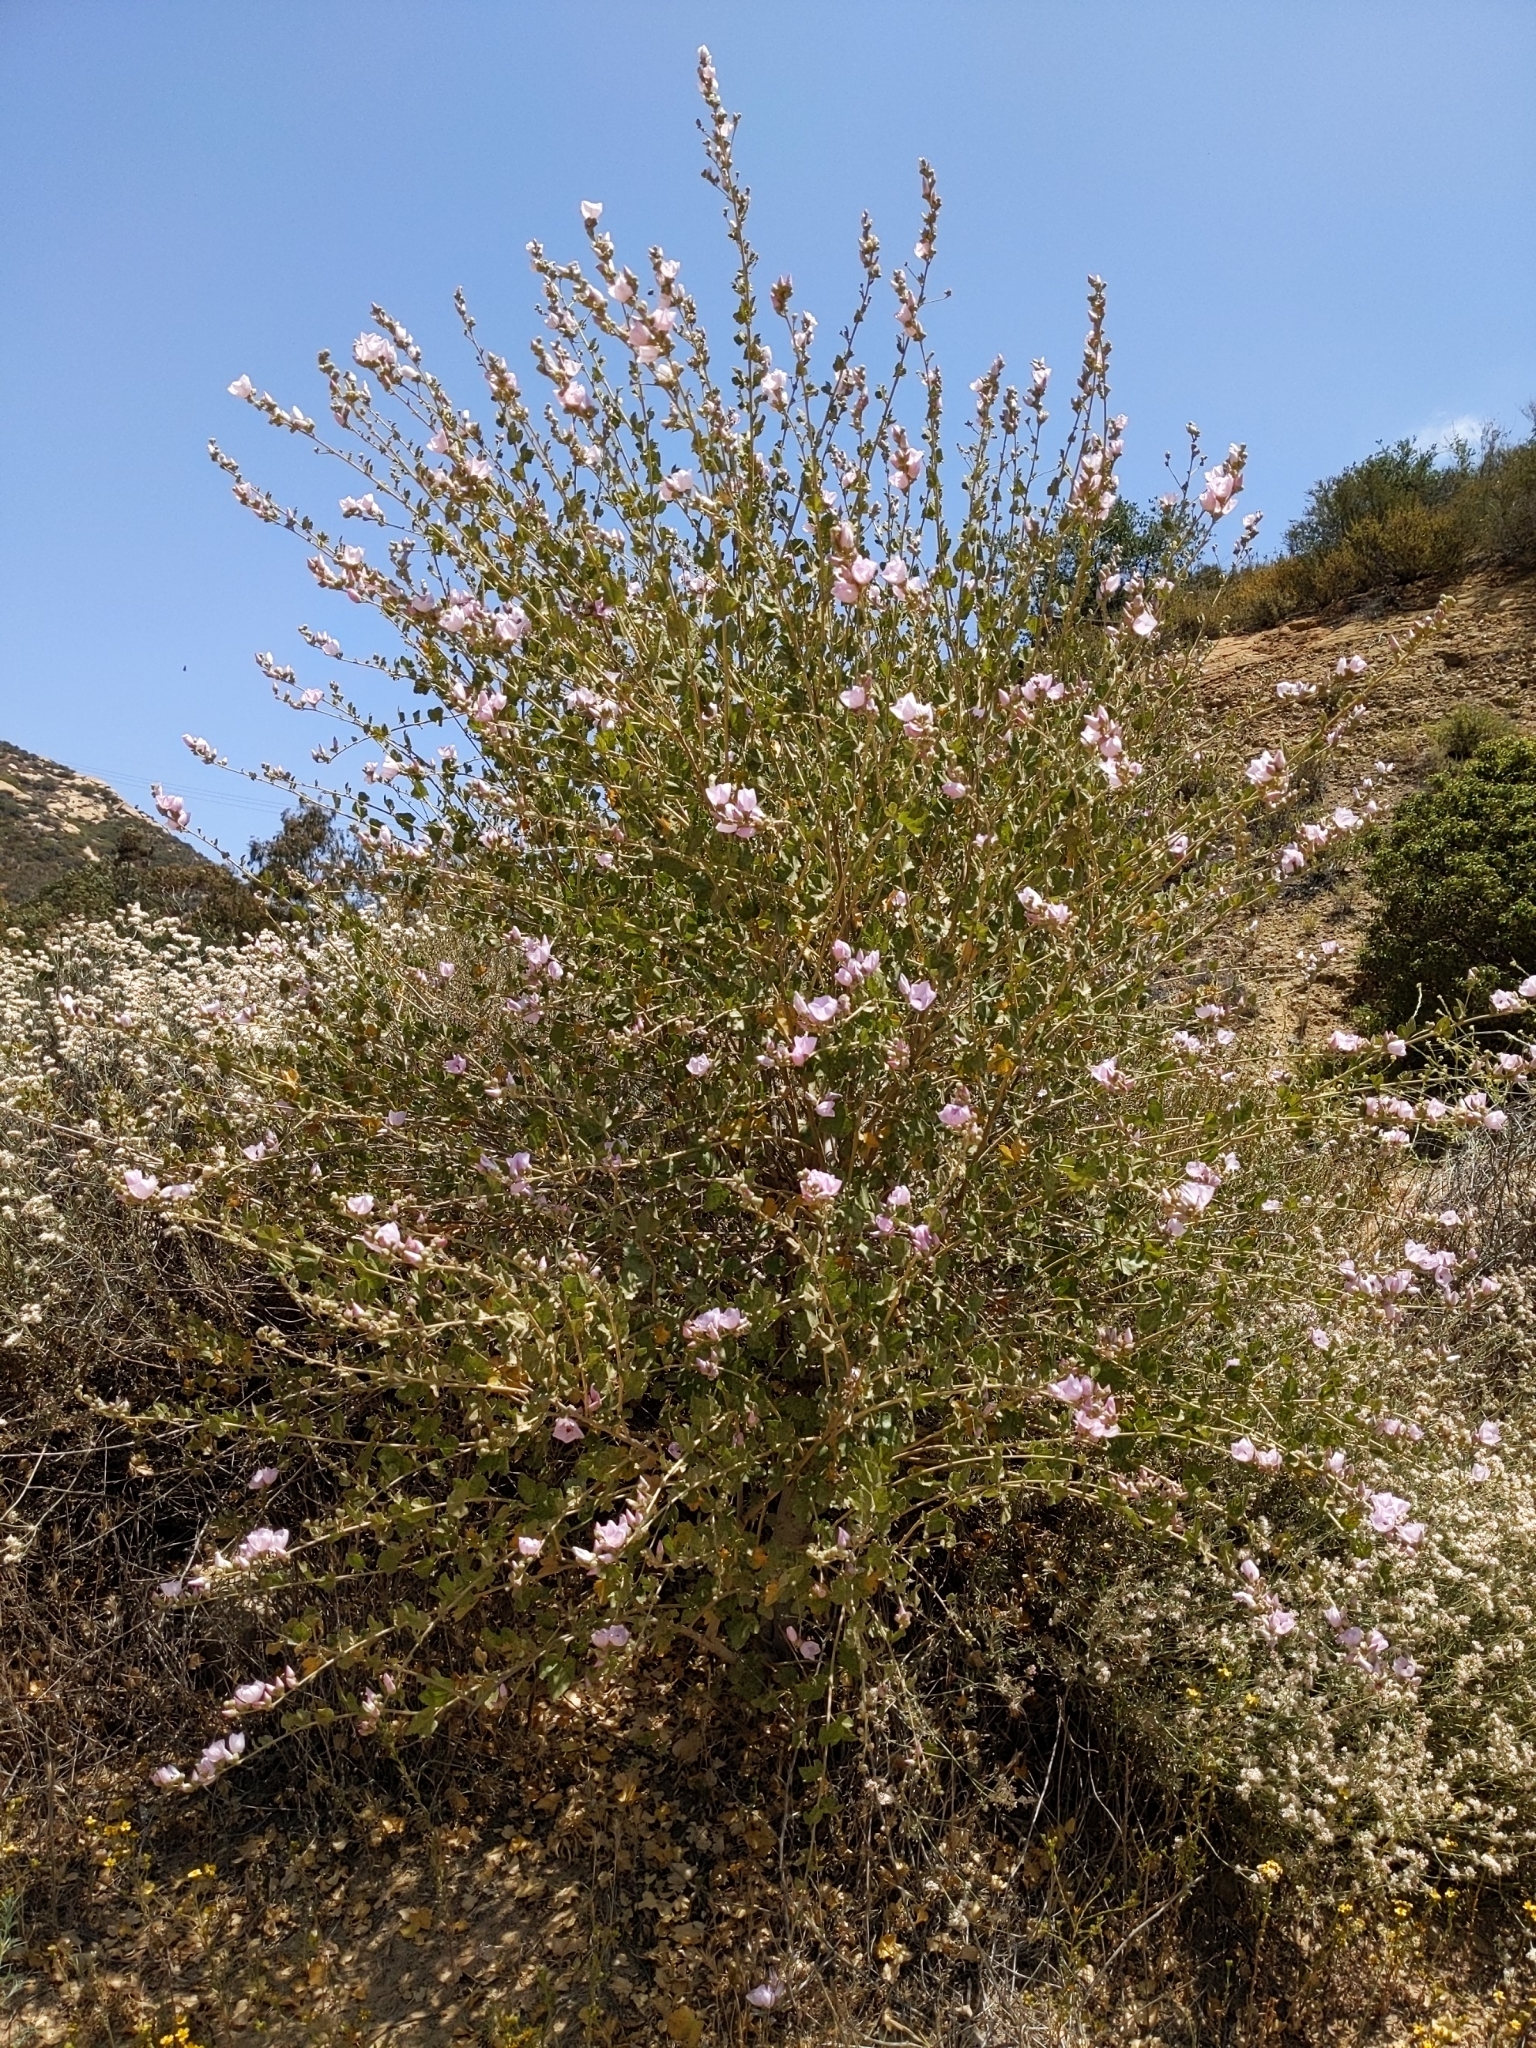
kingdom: Plantae
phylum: Tracheophyta
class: Magnoliopsida
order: Malvales
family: Malvaceae
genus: Malacothamnus
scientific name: Malacothamnus fasciculatus
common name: Sant cruz island bush-mallow
